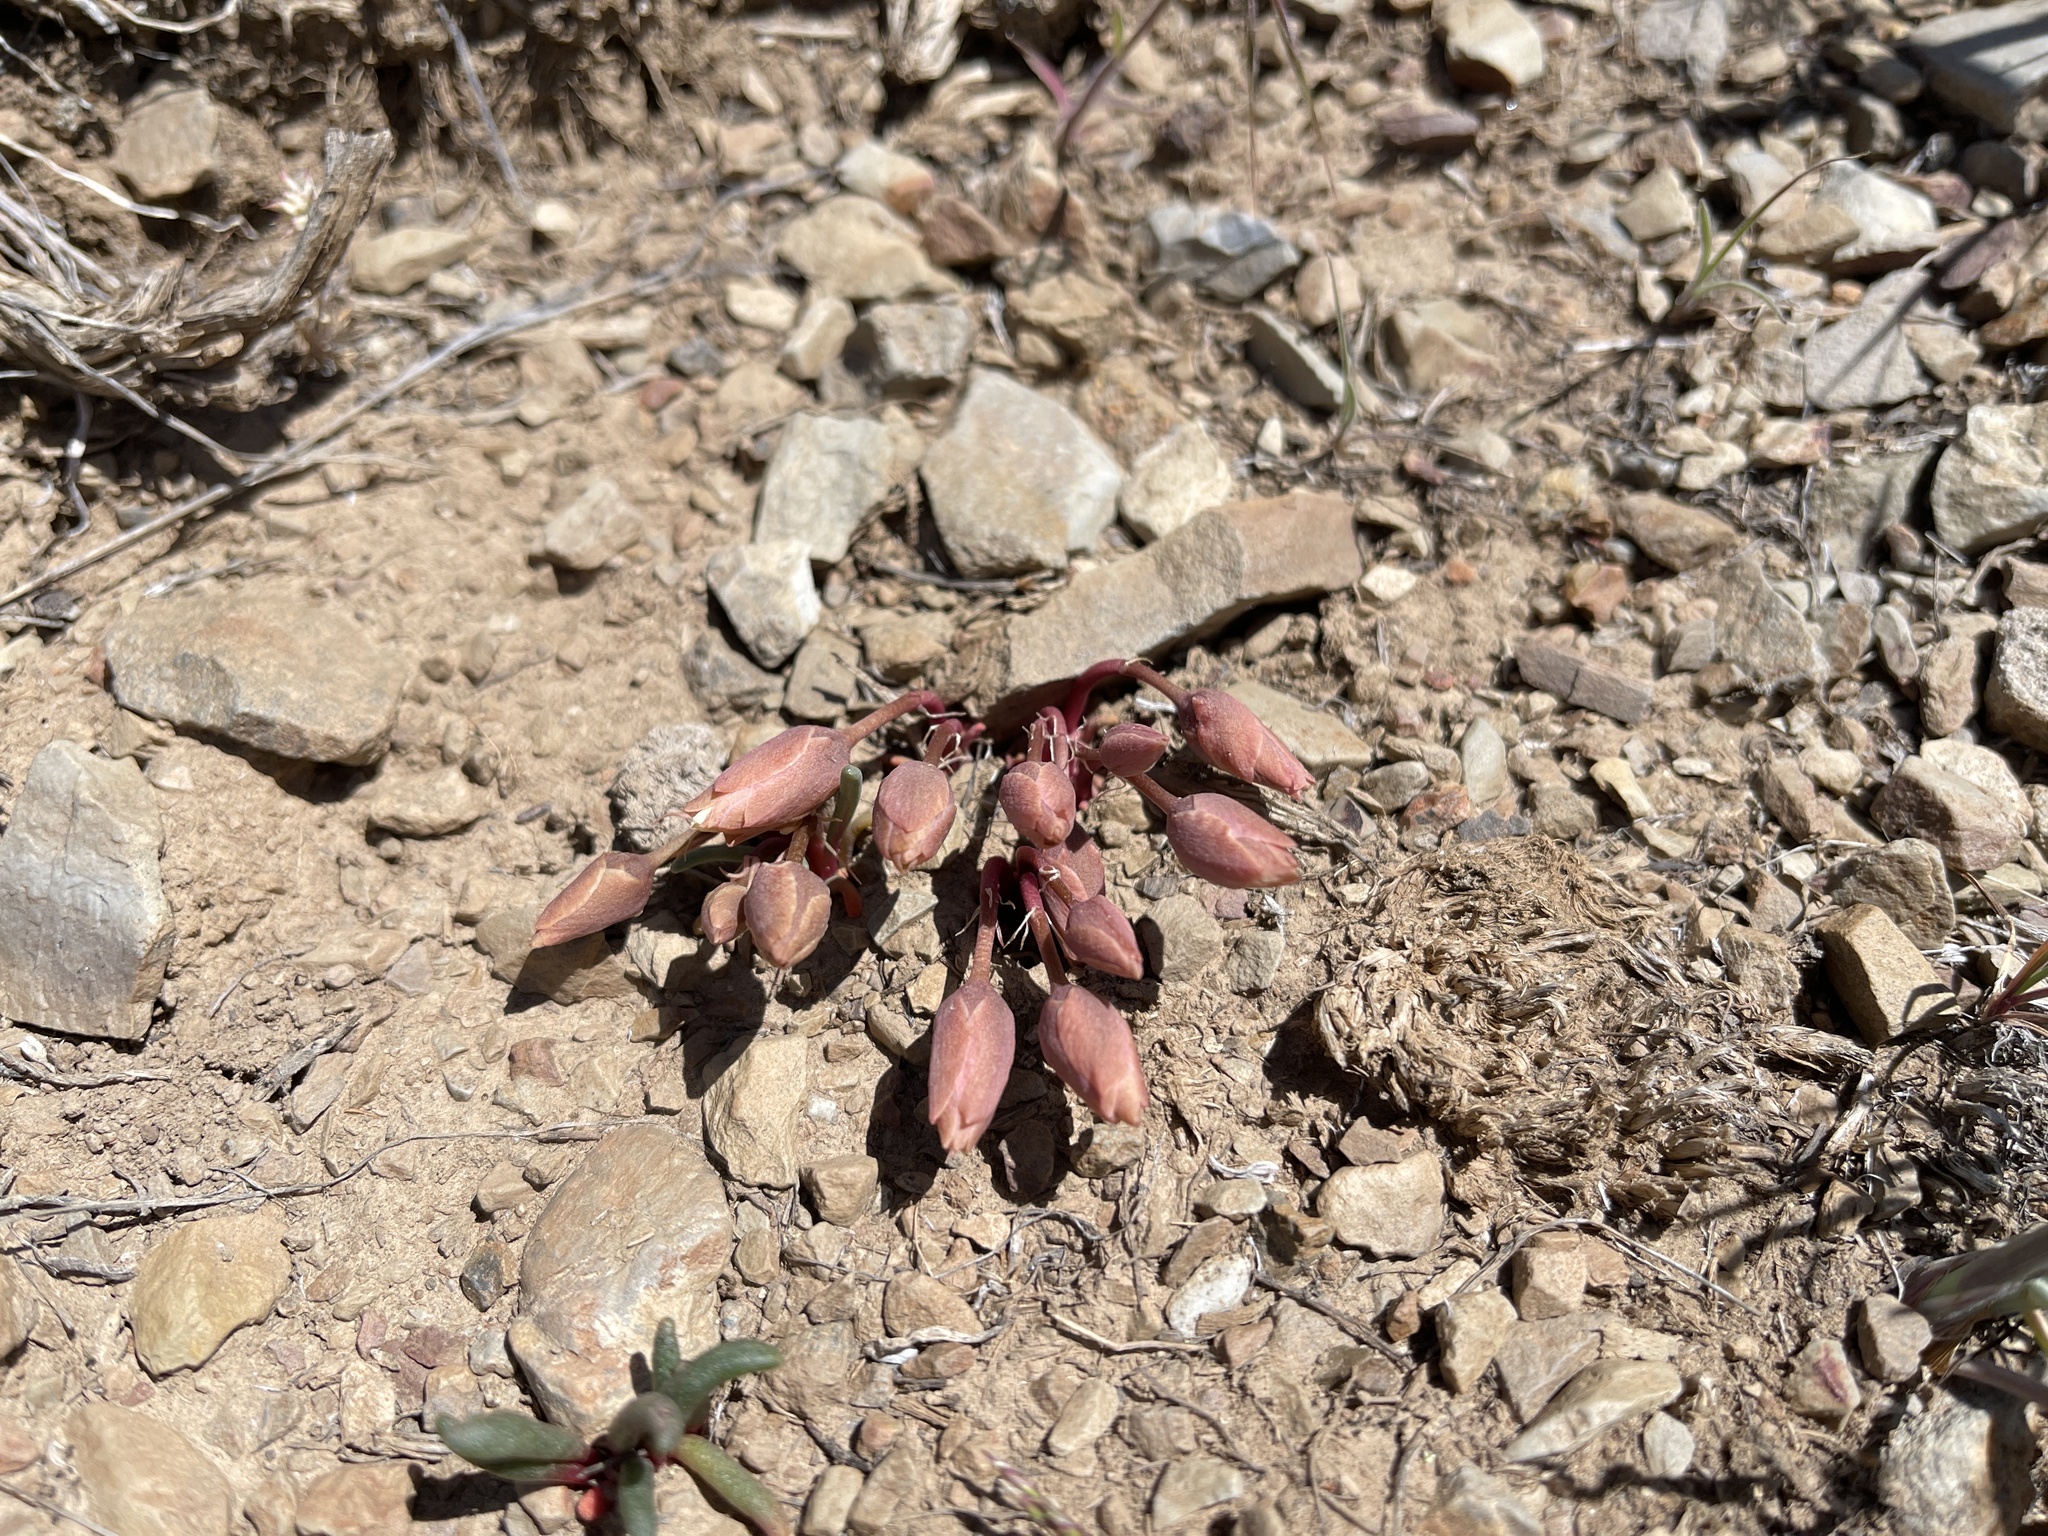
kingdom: Plantae
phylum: Tracheophyta
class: Magnoliopsida
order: Caryophyllales
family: Montiaceae
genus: Lewisia
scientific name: Lewisia rediviva
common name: Bitter-root
